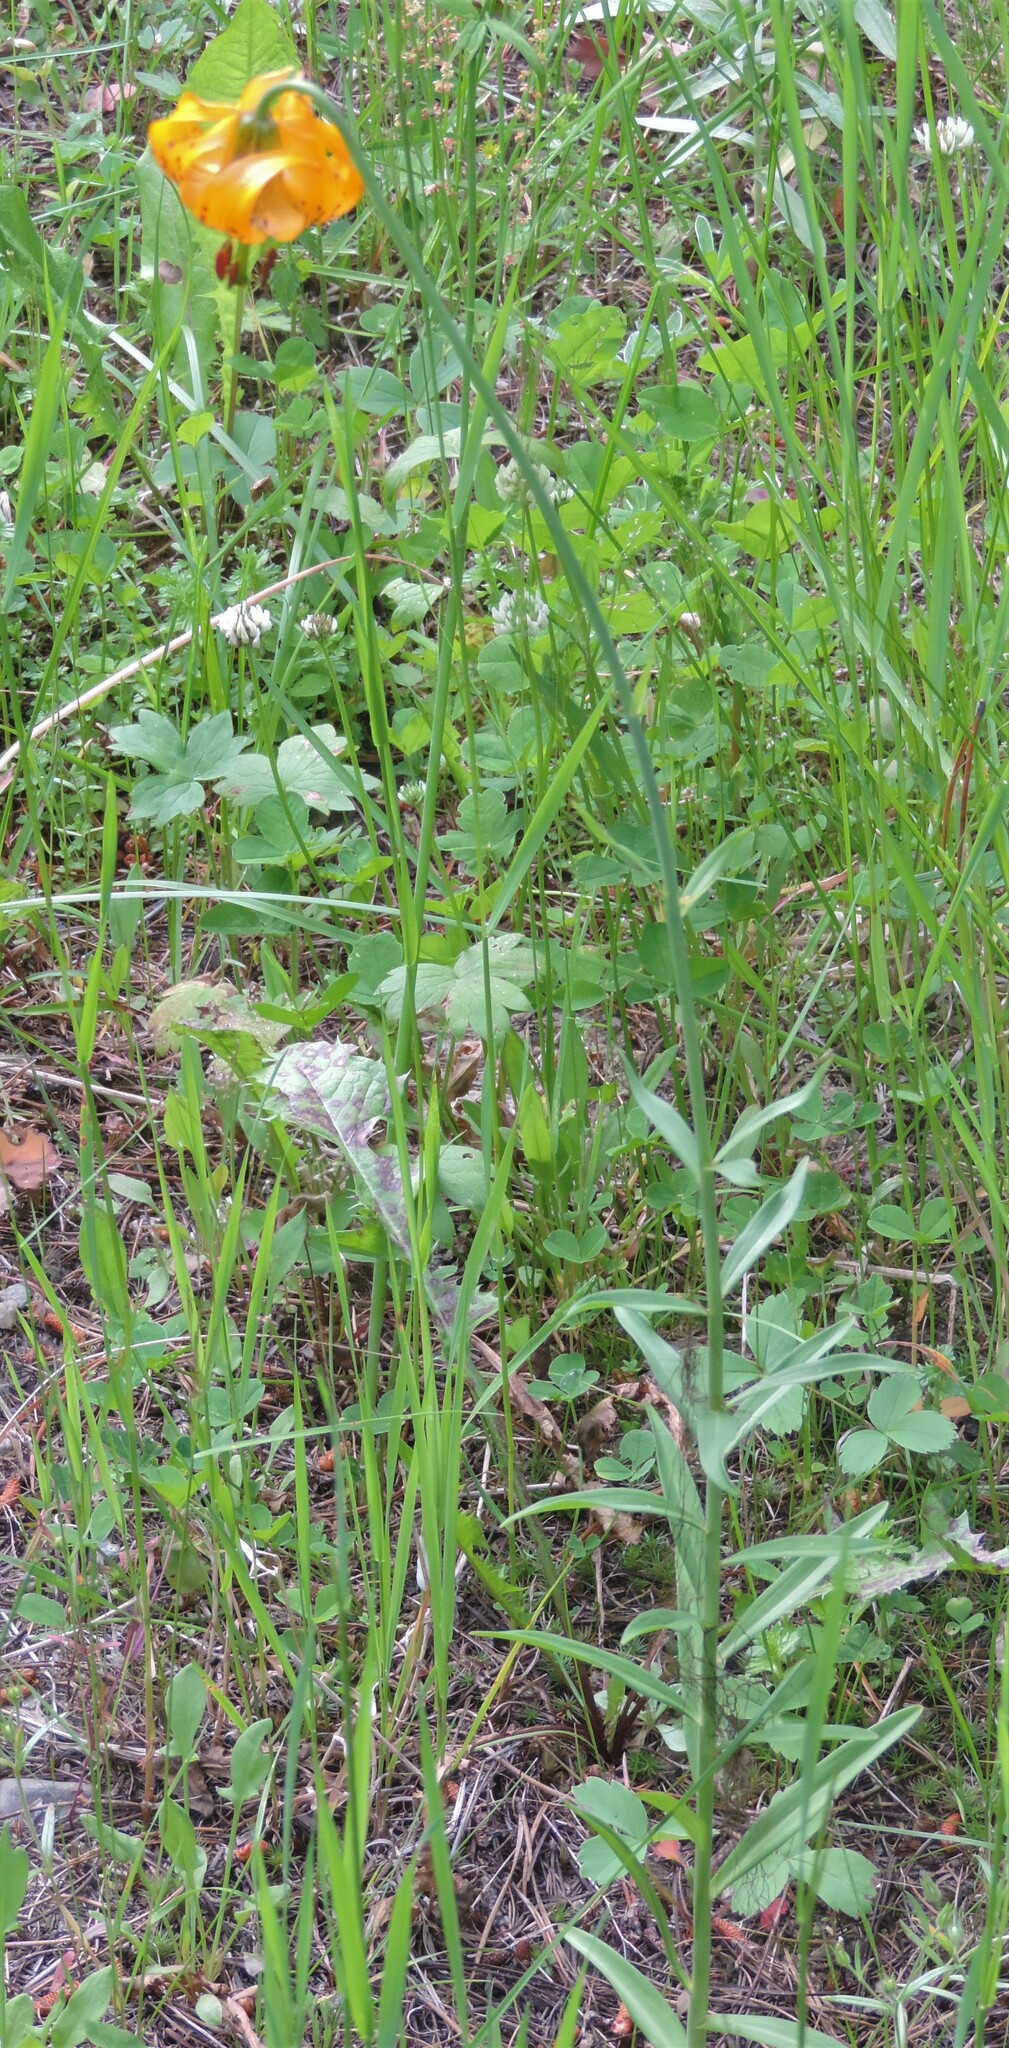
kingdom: Plantae
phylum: Tracheophyta
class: Liliopsida
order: Liliales
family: Liliaceae
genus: Lilium
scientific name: Lilium columbianum
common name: Columbia lily
